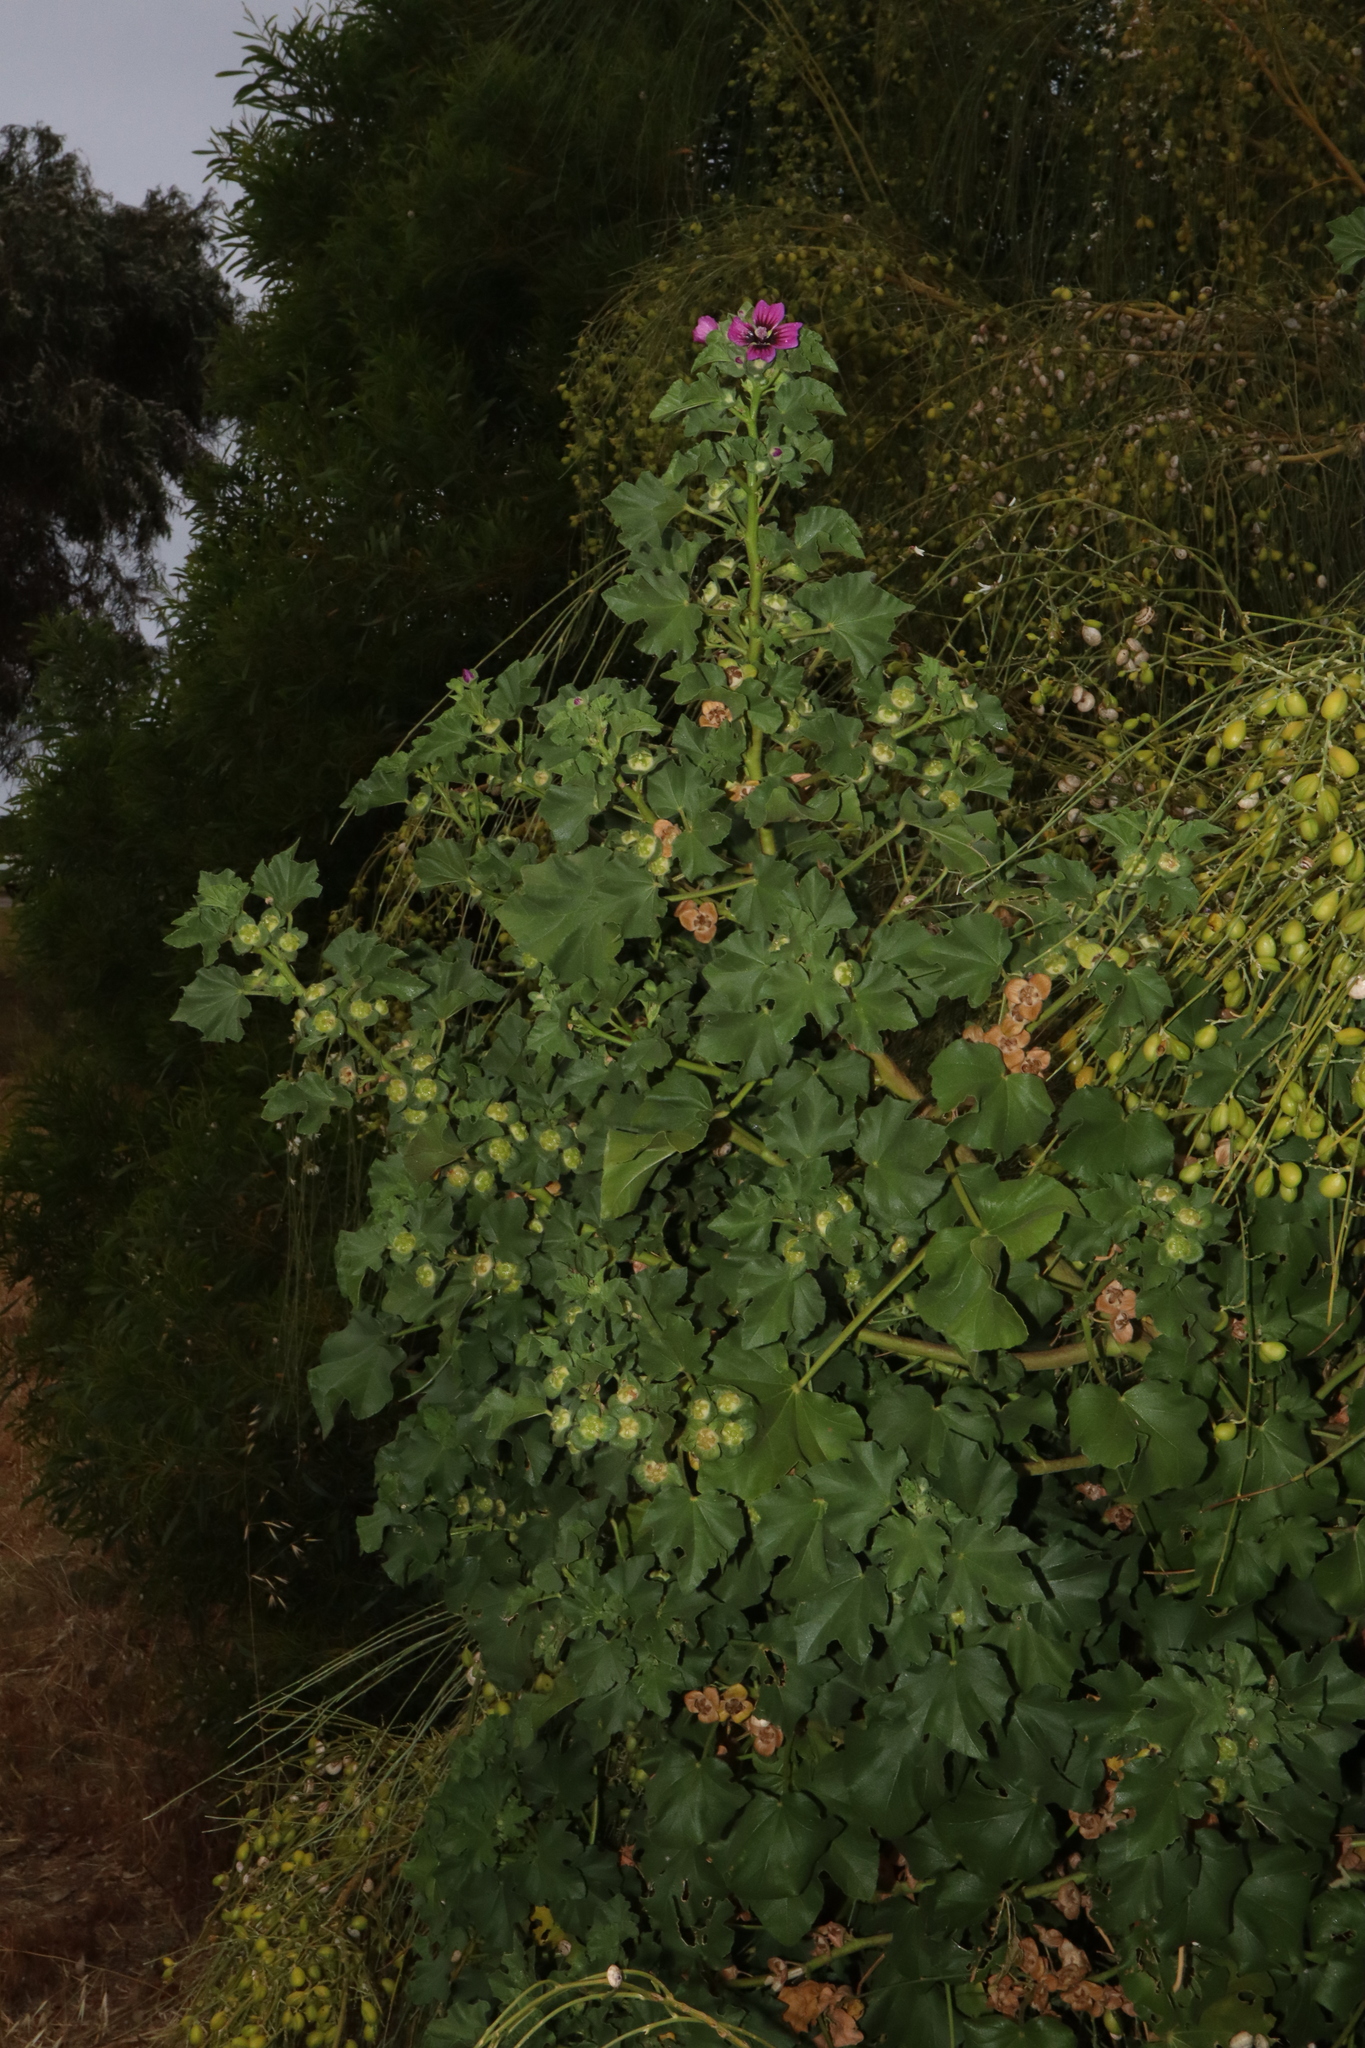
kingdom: Plantae
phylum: Tracheophyta
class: Magnoliopsida
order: Malvales
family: Malvaceae
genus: Malva
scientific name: Malva arborea
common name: Tree mallow
